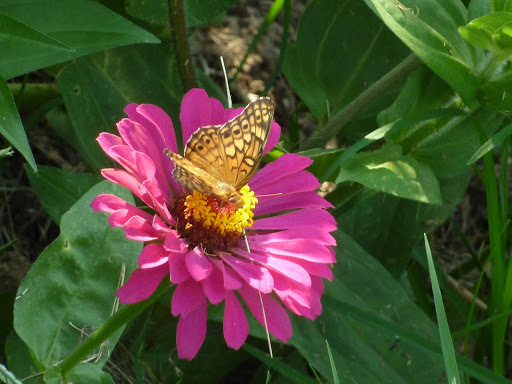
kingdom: Animalia
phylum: Arthropoda
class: Insecta
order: Lepidoptera
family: Nymphalidae
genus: Euptoieta
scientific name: Euptoieta claudia
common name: Variegated fritillary
